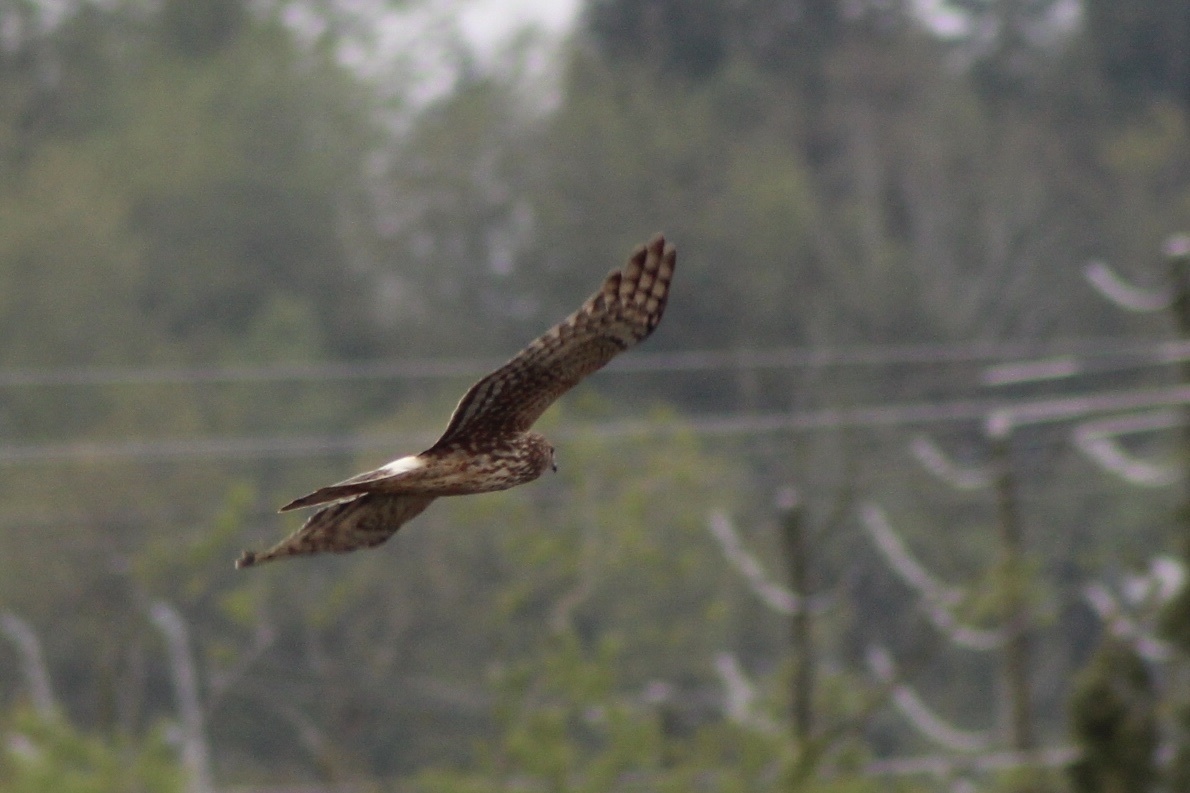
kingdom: Animalia
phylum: Chordata
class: Aves
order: Accipitriformes
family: Accipitridae
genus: Circus
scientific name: Circus cyaneus
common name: Hen harrier
